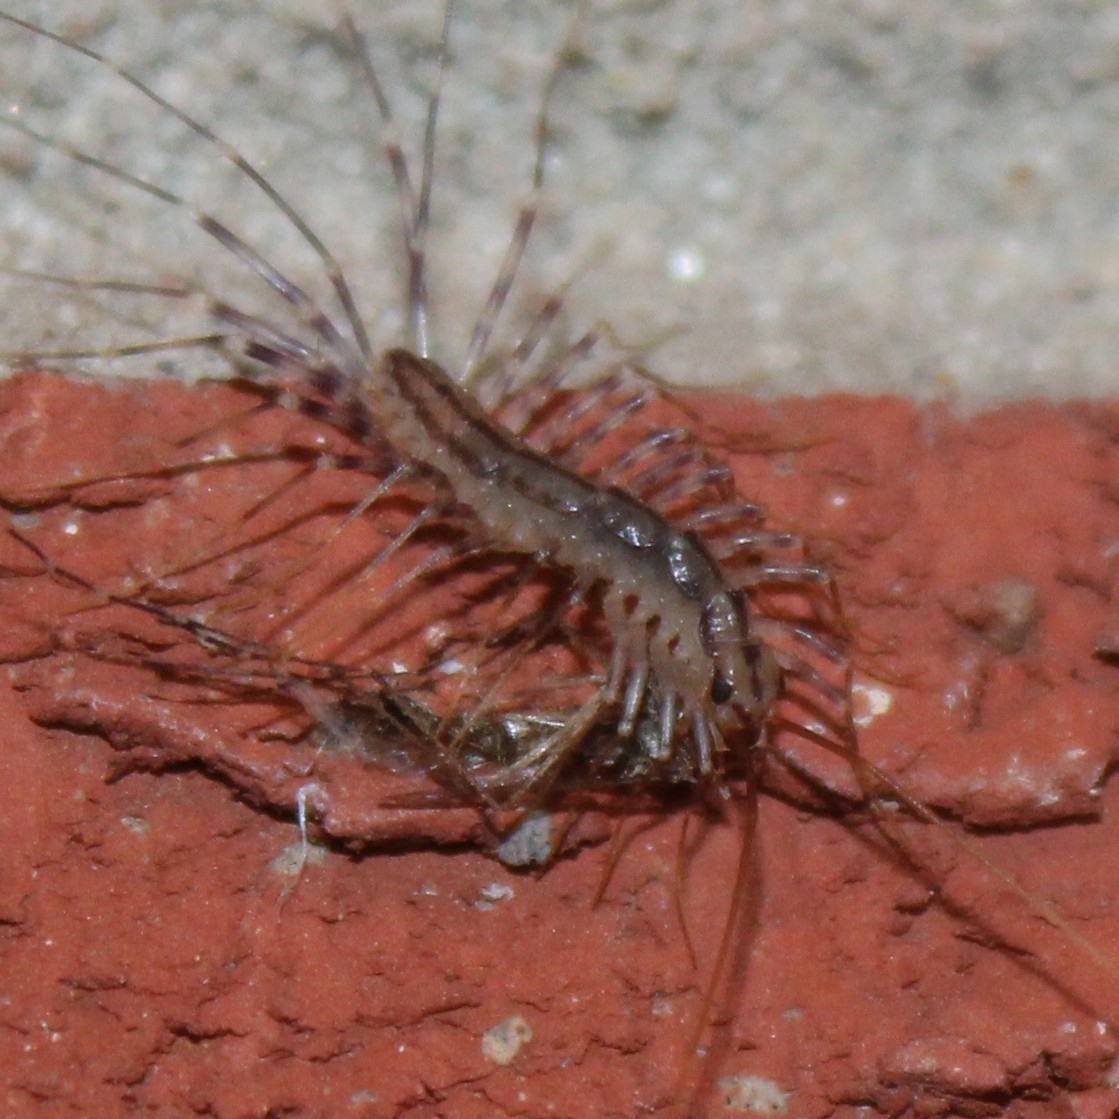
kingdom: Animalia
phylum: Arthropoda
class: Chilopoda
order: Scutigeromorpha
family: Scutigeridae
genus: Scutigera
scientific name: Scutigera coleoptrata
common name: House centipede
